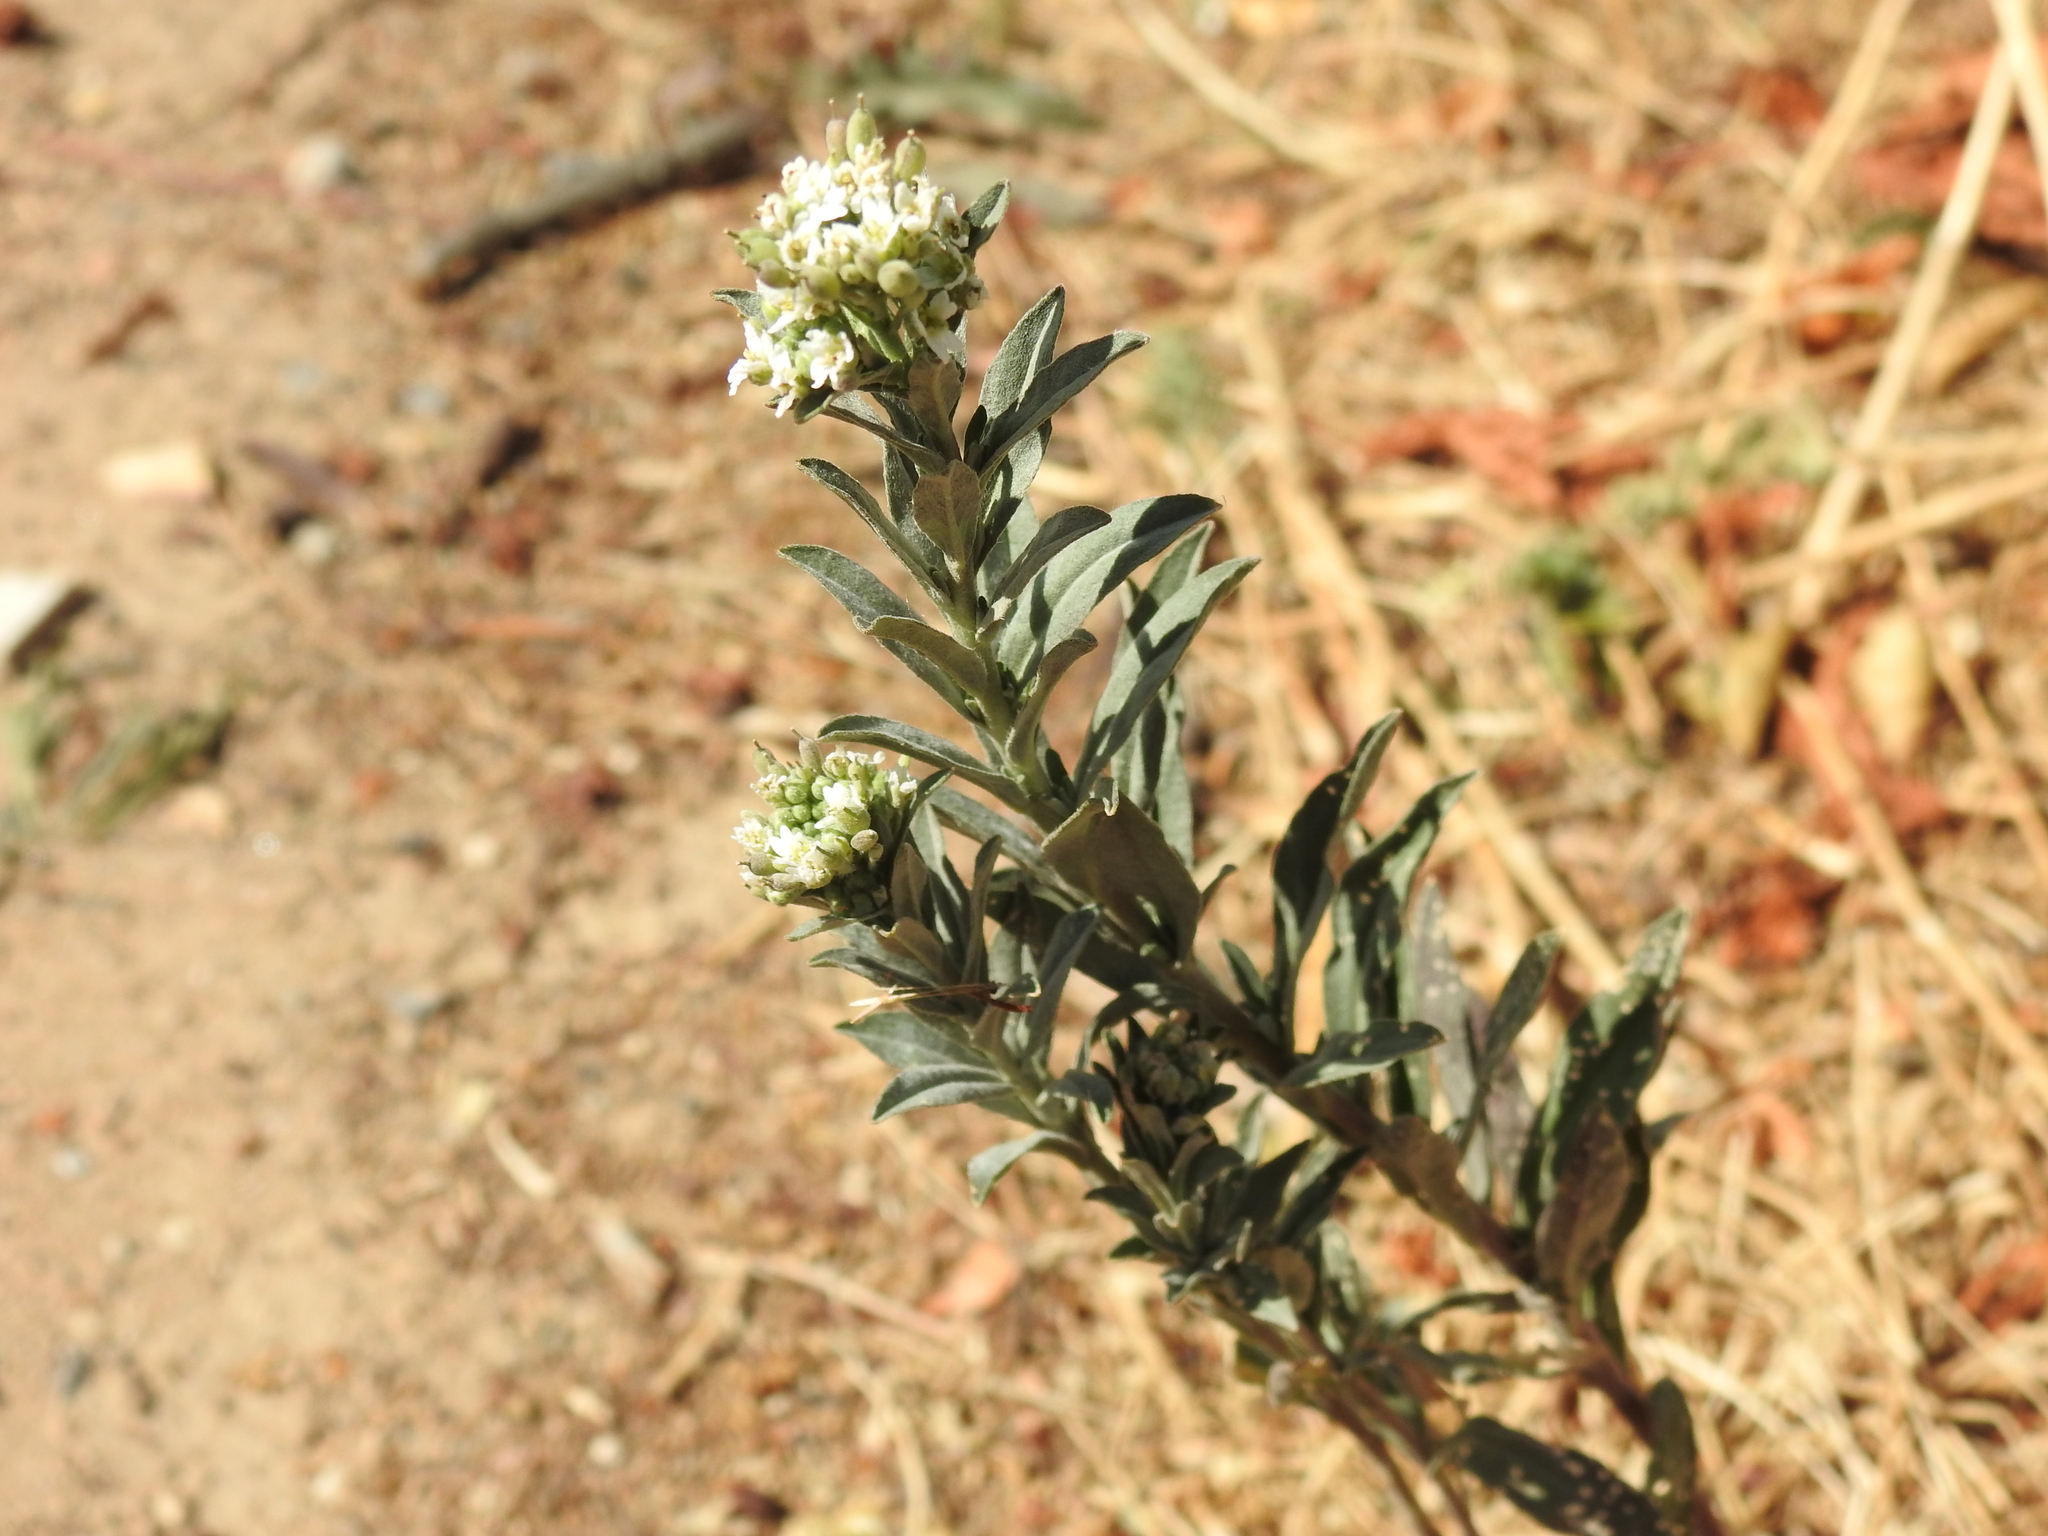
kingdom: Plantae
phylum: Tracheophyta
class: Magnoliopsida
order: Brassicales
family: Brassicaceae
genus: Berteroa
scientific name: Berteroa incana
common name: Hoary alison
